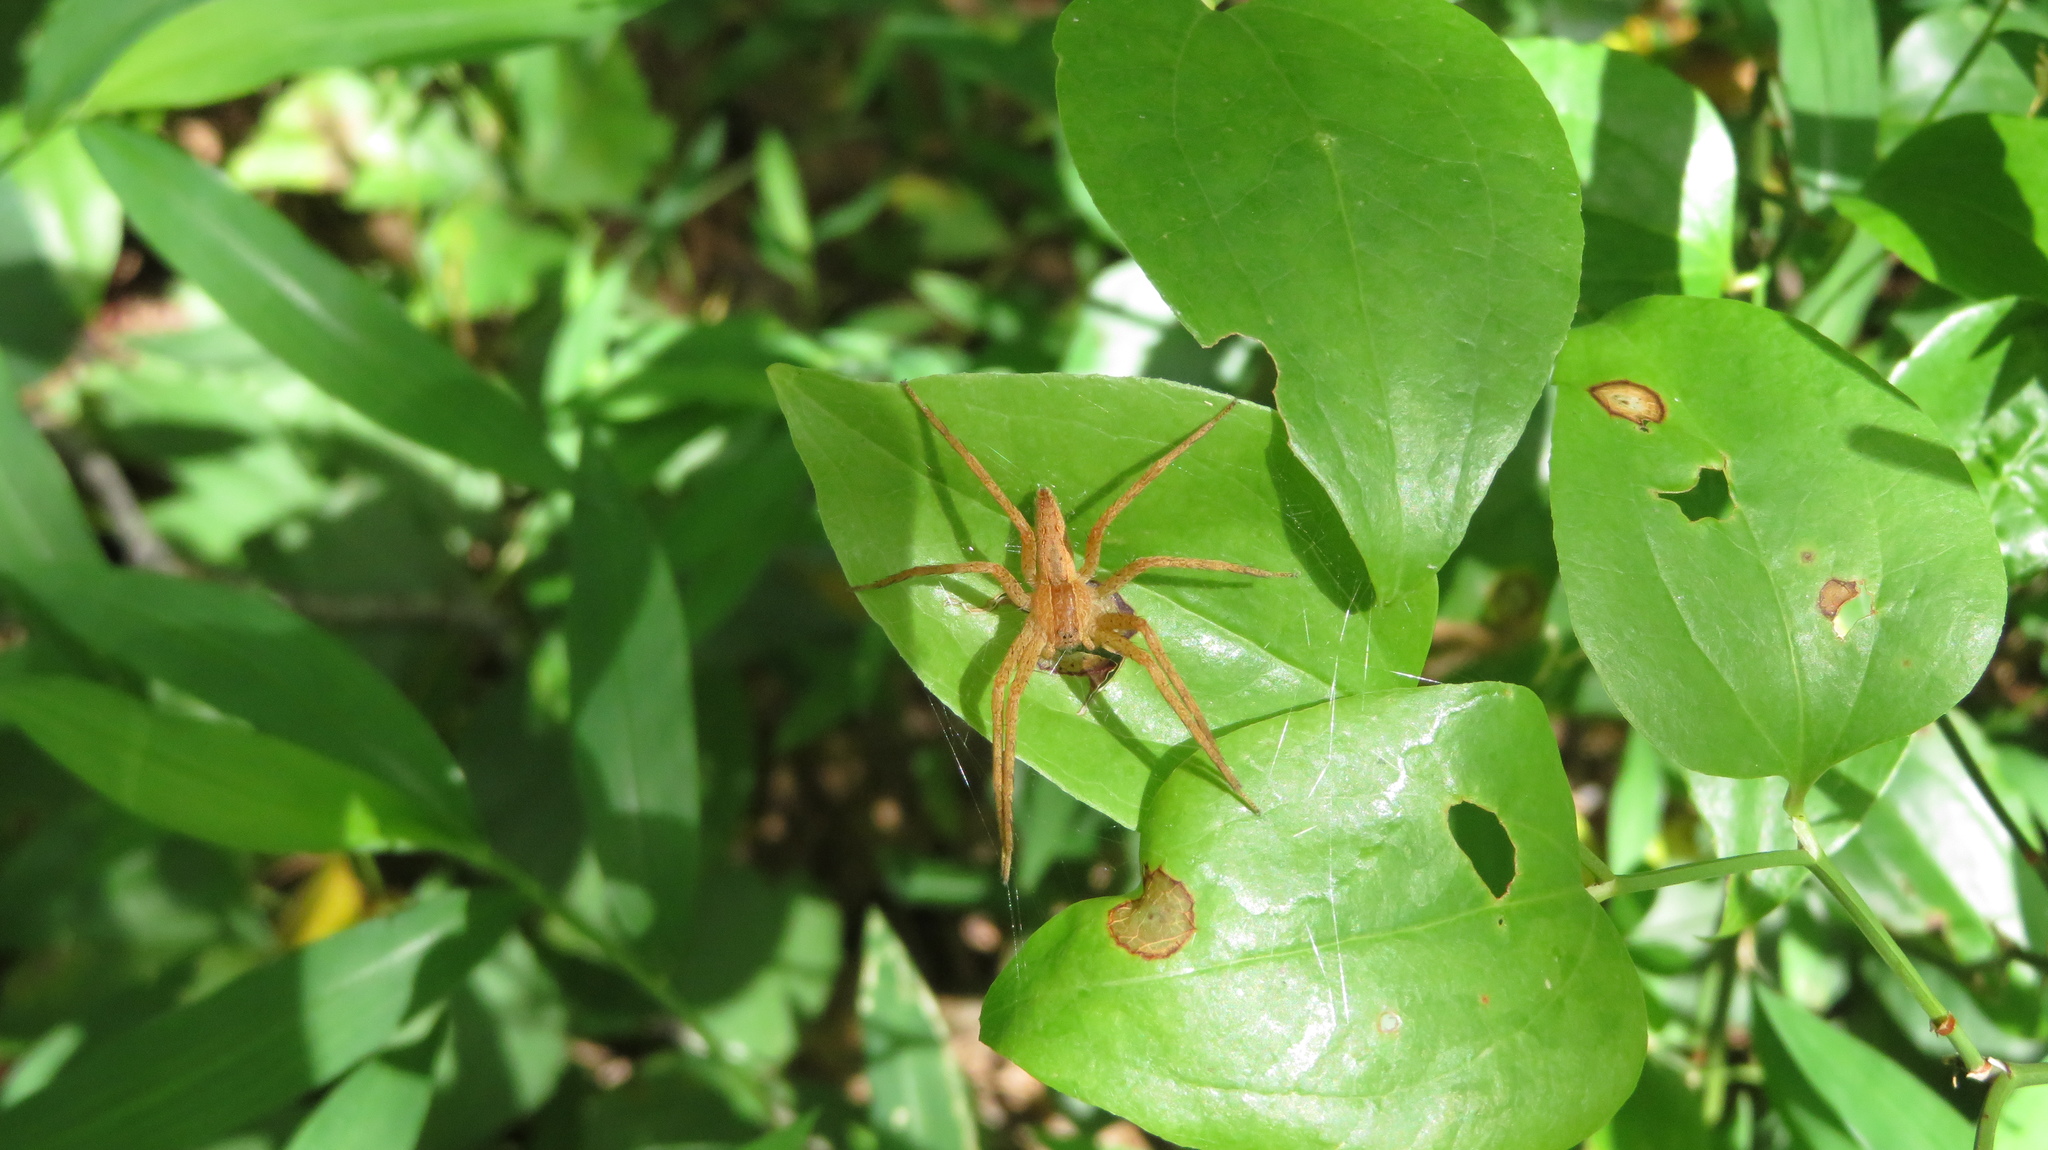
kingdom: Animalia
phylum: Arthropoda
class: Arachnida
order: Araneae
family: Pisauridae
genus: Pisaurina
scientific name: Pisaurina mira
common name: American nursery web spider
